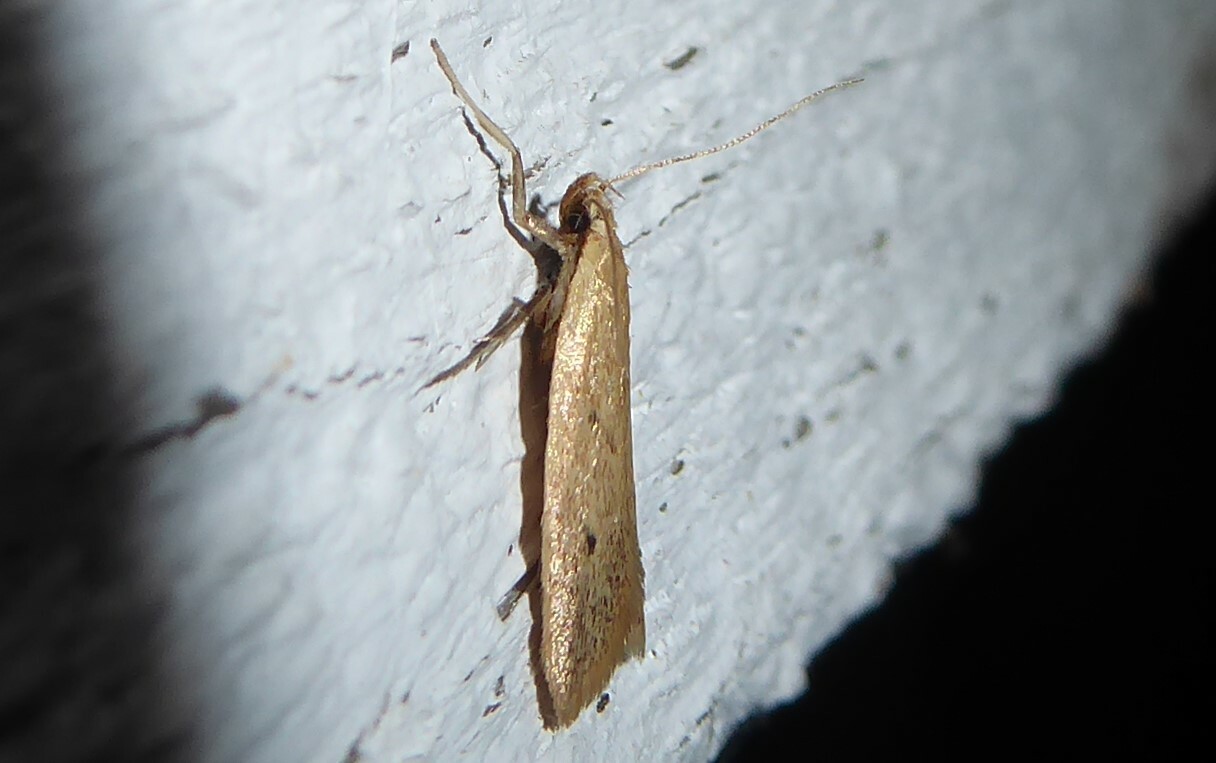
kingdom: Animalia
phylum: Arthropoda
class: Insecta
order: Lepidoptera
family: Oecophoridae
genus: Gymnobathra
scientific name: Gymnobathra sarcoxantha
